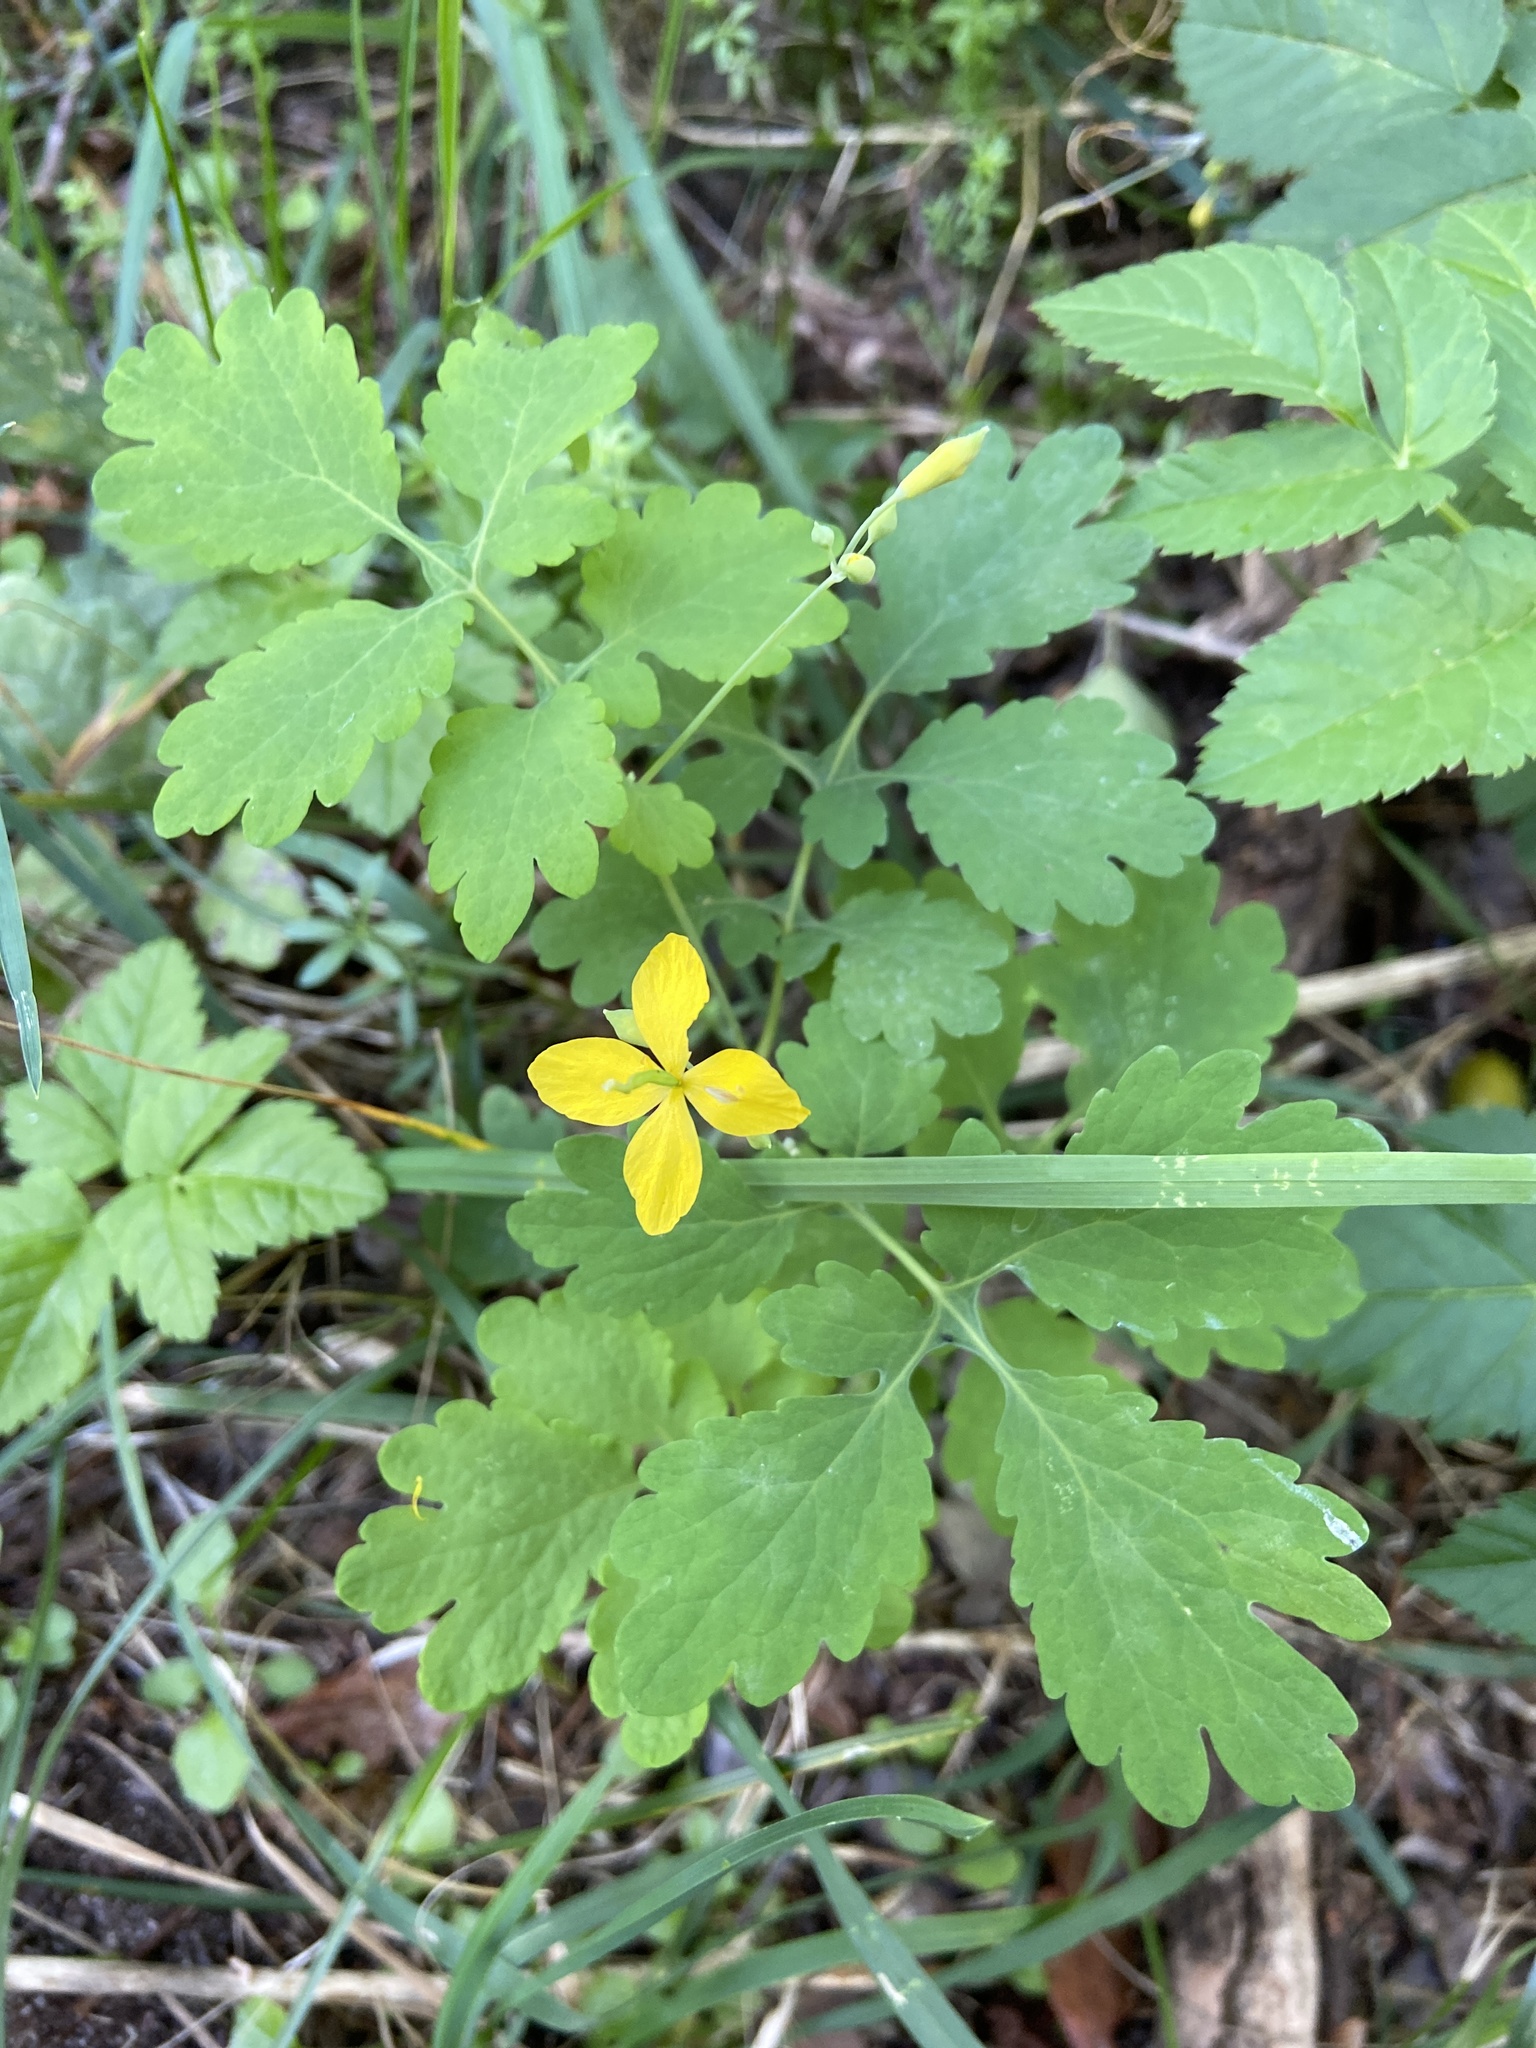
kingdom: Plantae
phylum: Tracheophyta
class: Magnoliopsida
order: Ranunculales
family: Papaveraceae
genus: Chelidonium
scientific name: Chelidonium majus
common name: Greater celandine
